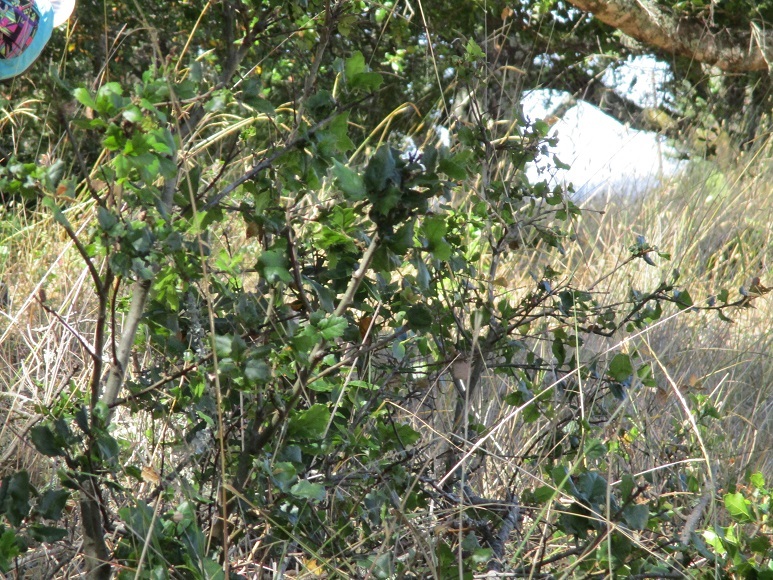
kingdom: Plantae
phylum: Tracheophyta
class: Magnoliopsida
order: Asterales
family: Asteraceae
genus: Baccharis
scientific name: Baccharis pilularis
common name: Coyotebrush
